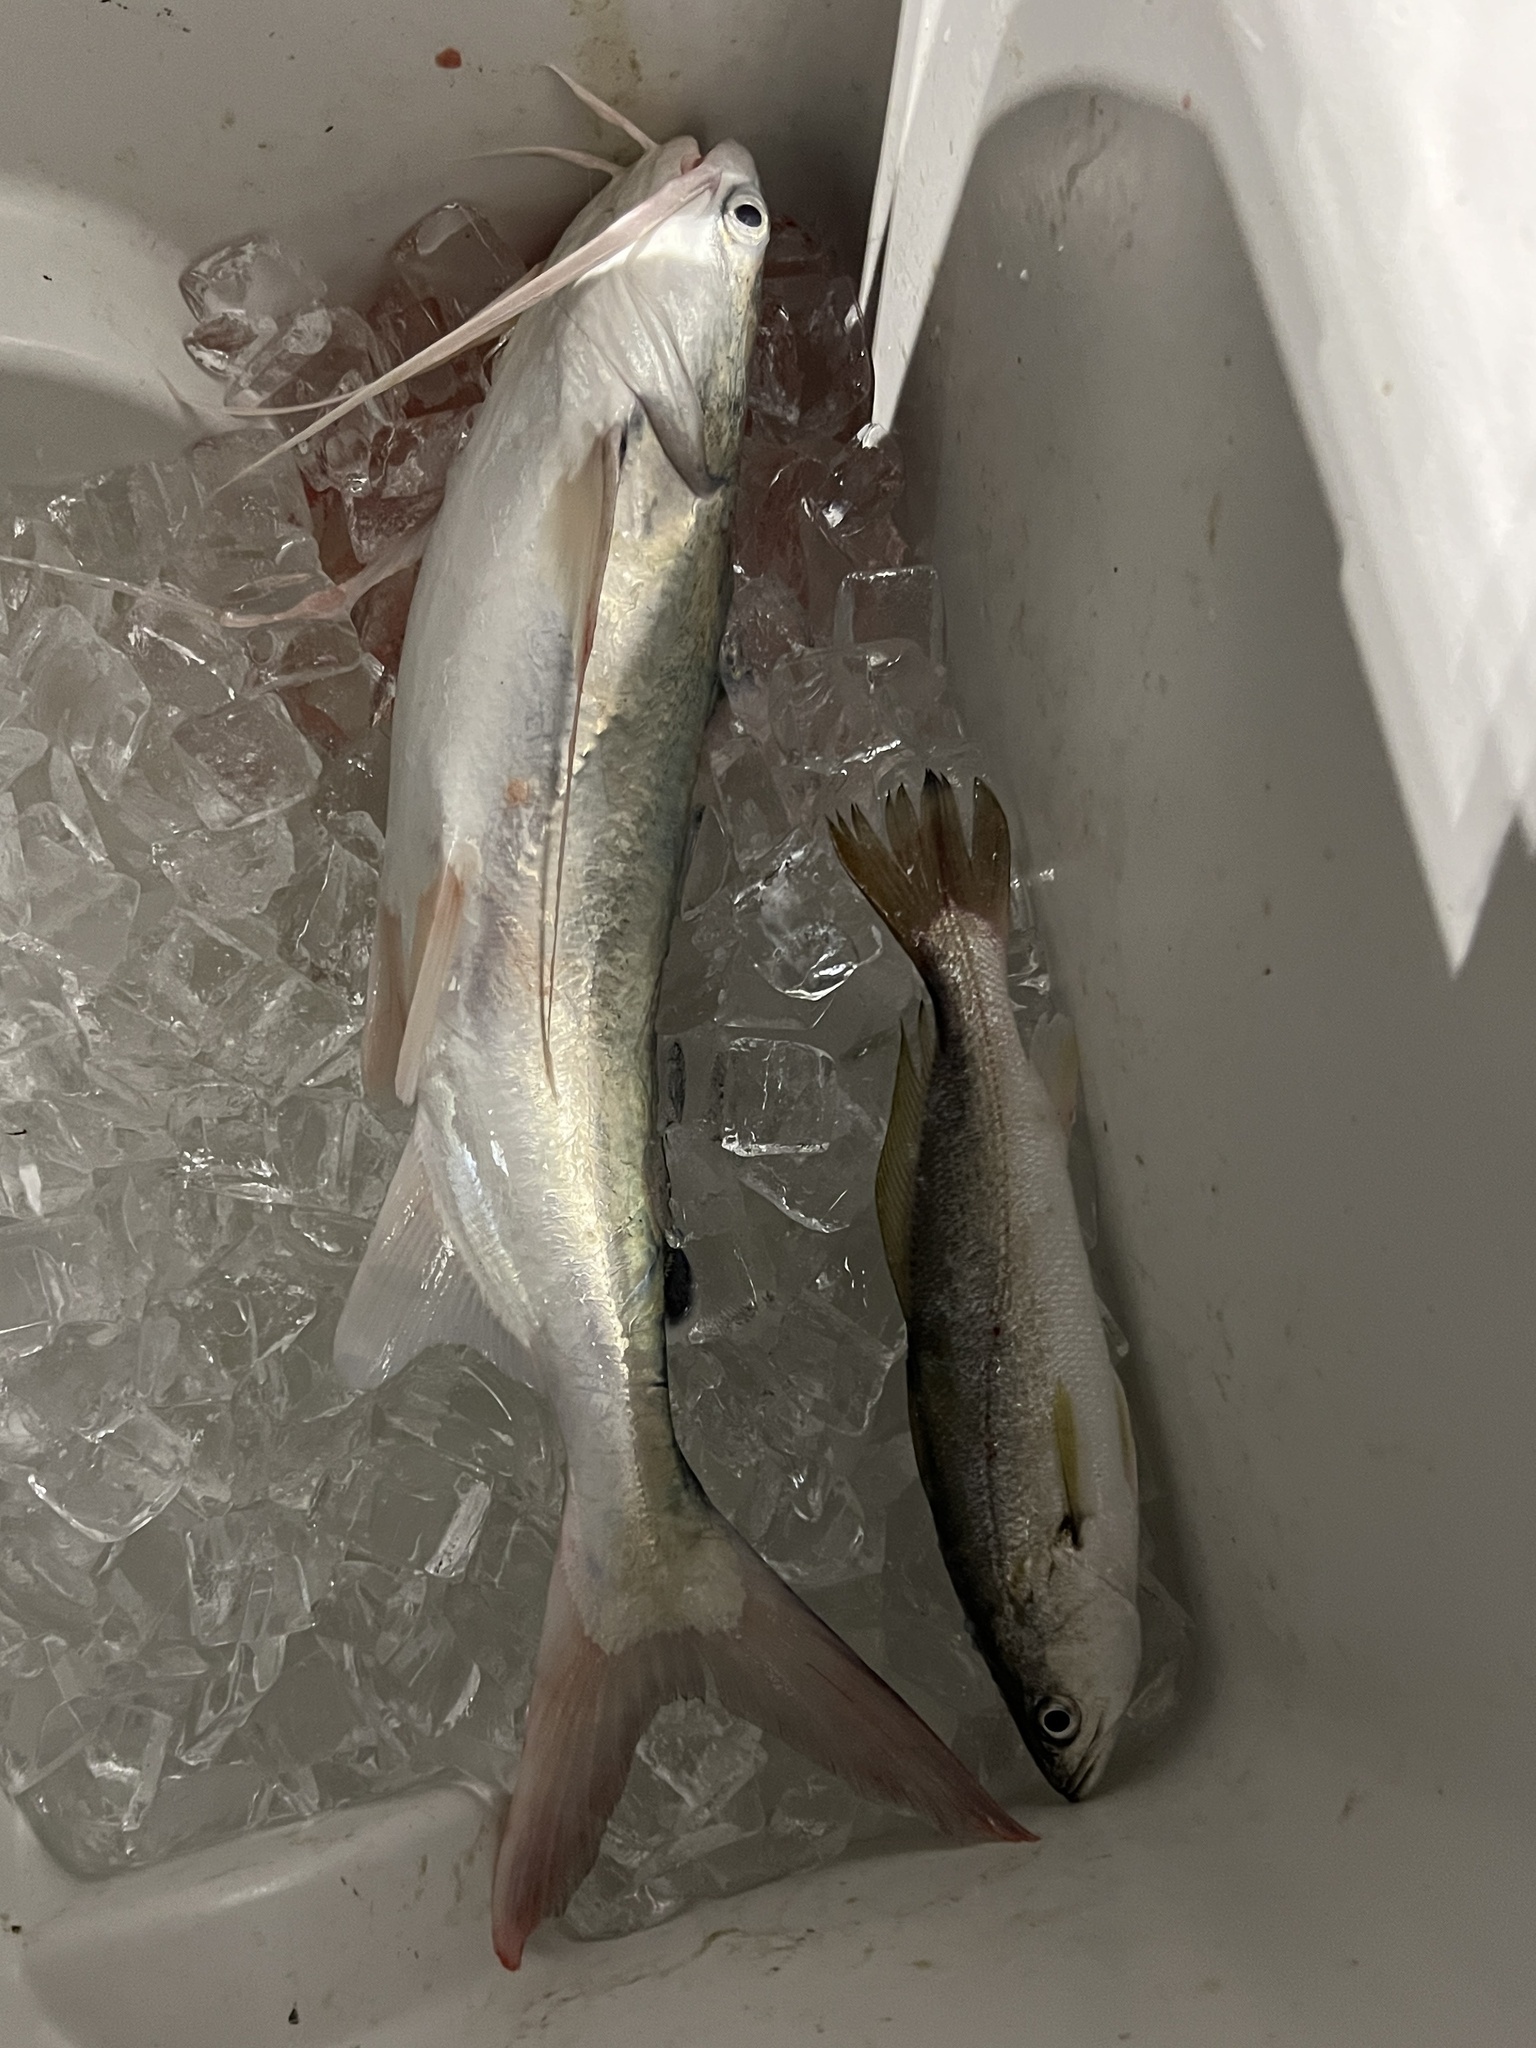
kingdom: Animalia
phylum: Chordata
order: Siluriformes
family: Ariidae
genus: Bagre
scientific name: Bagre marinus
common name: Gafftopsail sea catfish
